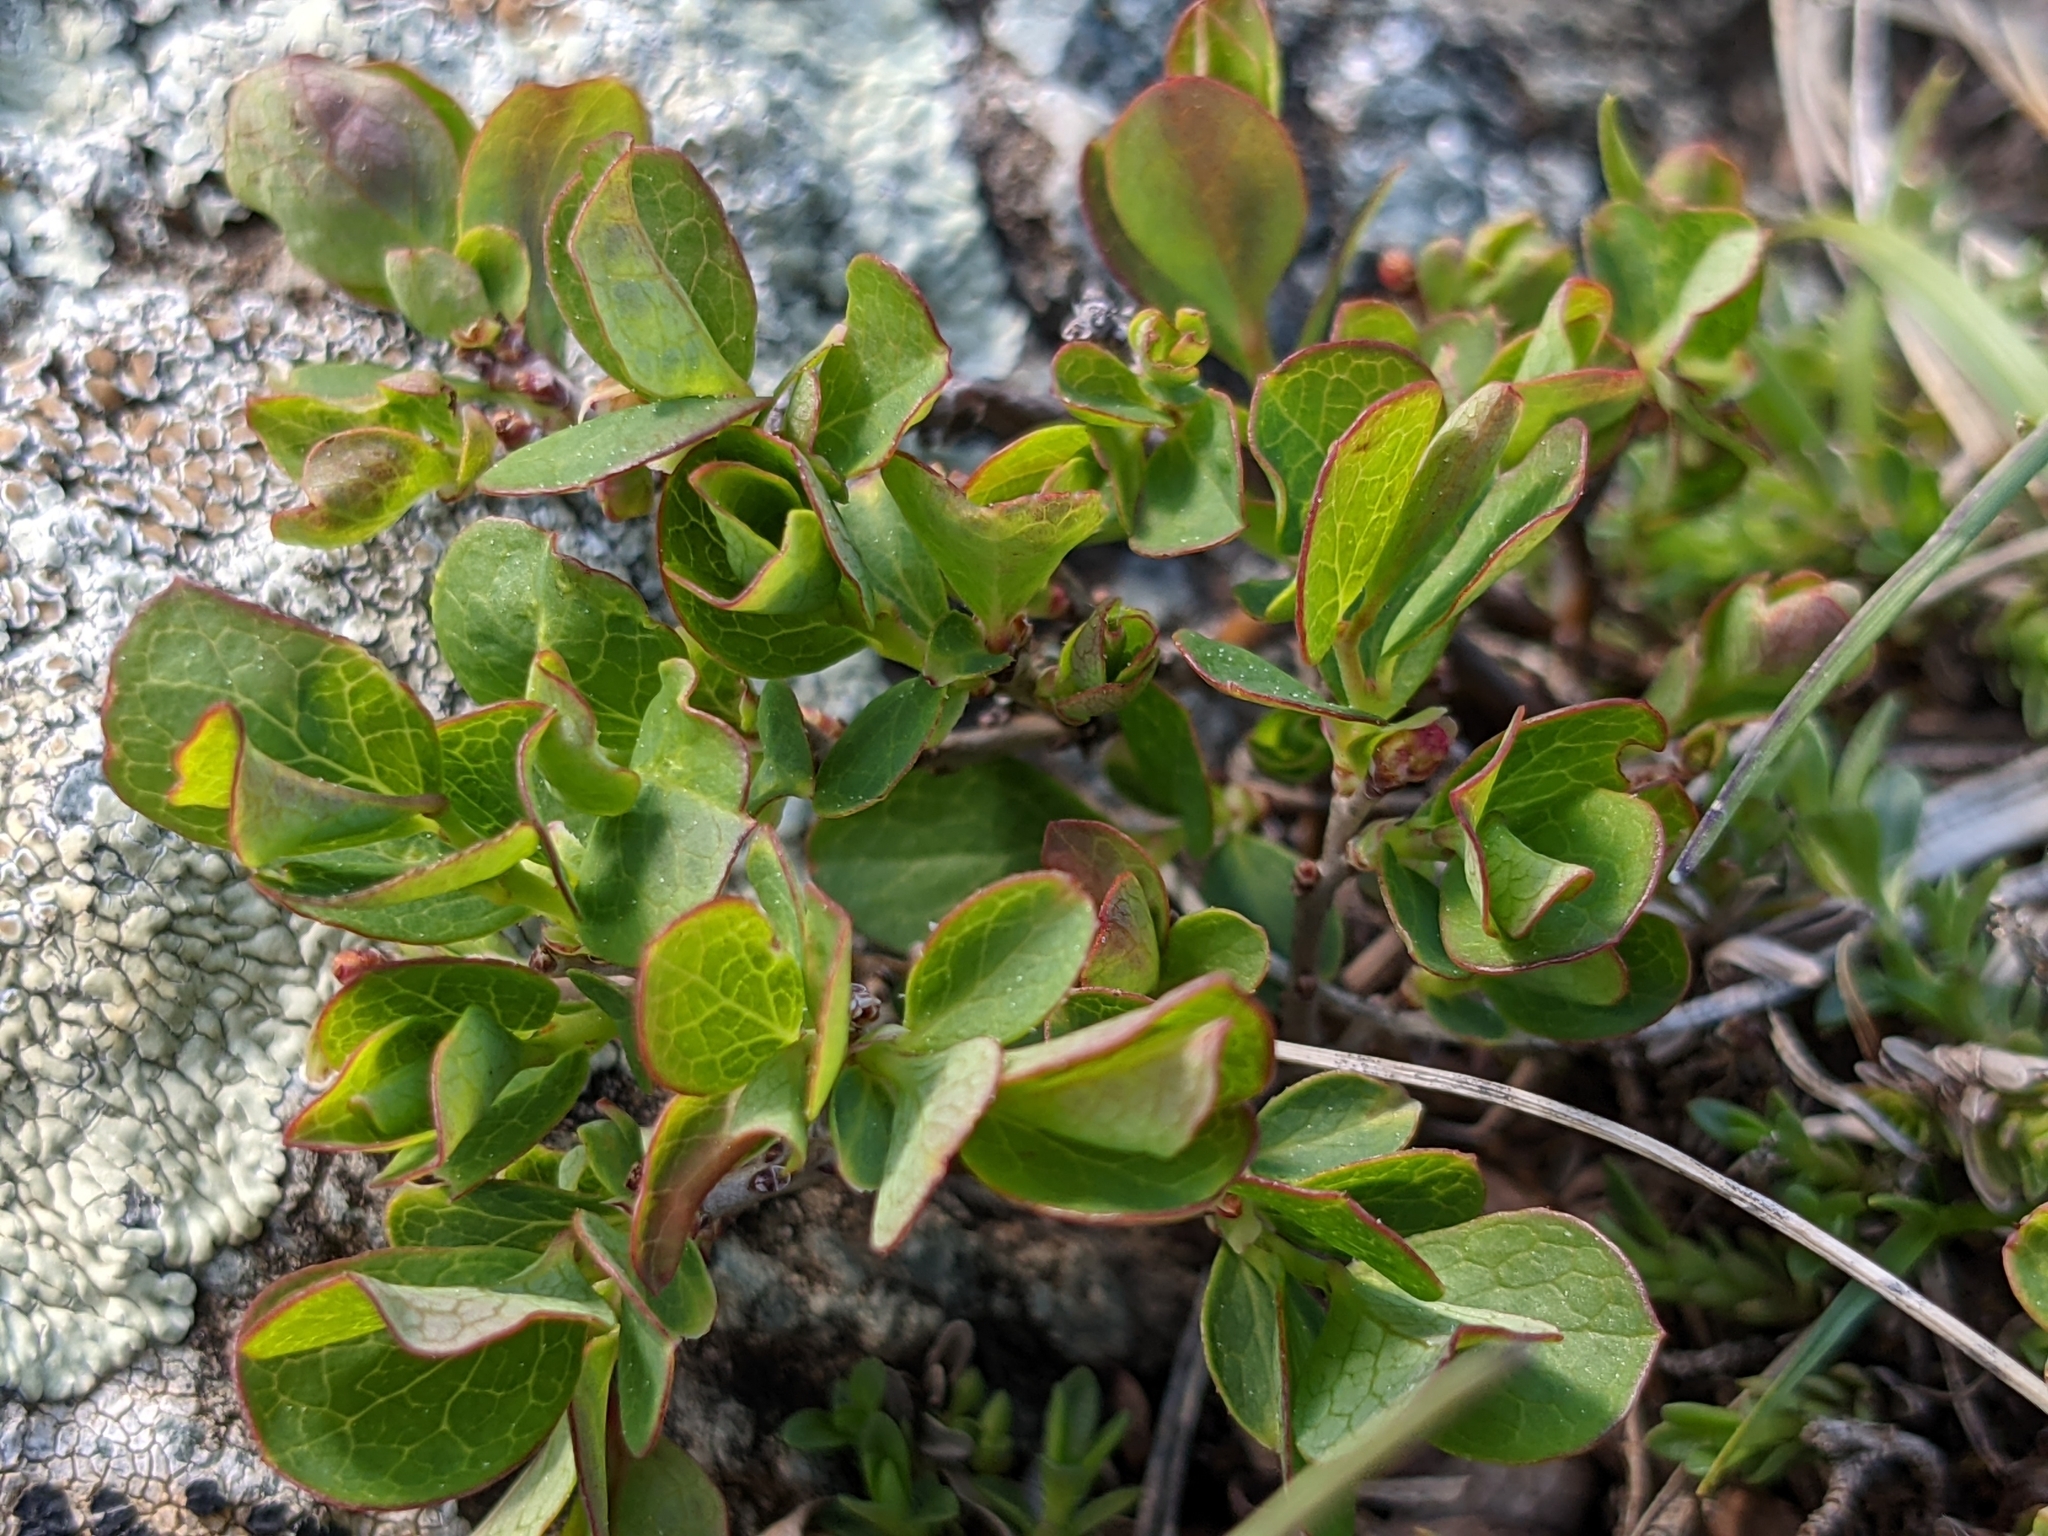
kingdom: Plantae
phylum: Tracheophyta
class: Magnoliopsida
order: Ericales
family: Ericaceae
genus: Vaccinium
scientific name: Vaccinium uliginosum
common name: Bog bilberry
